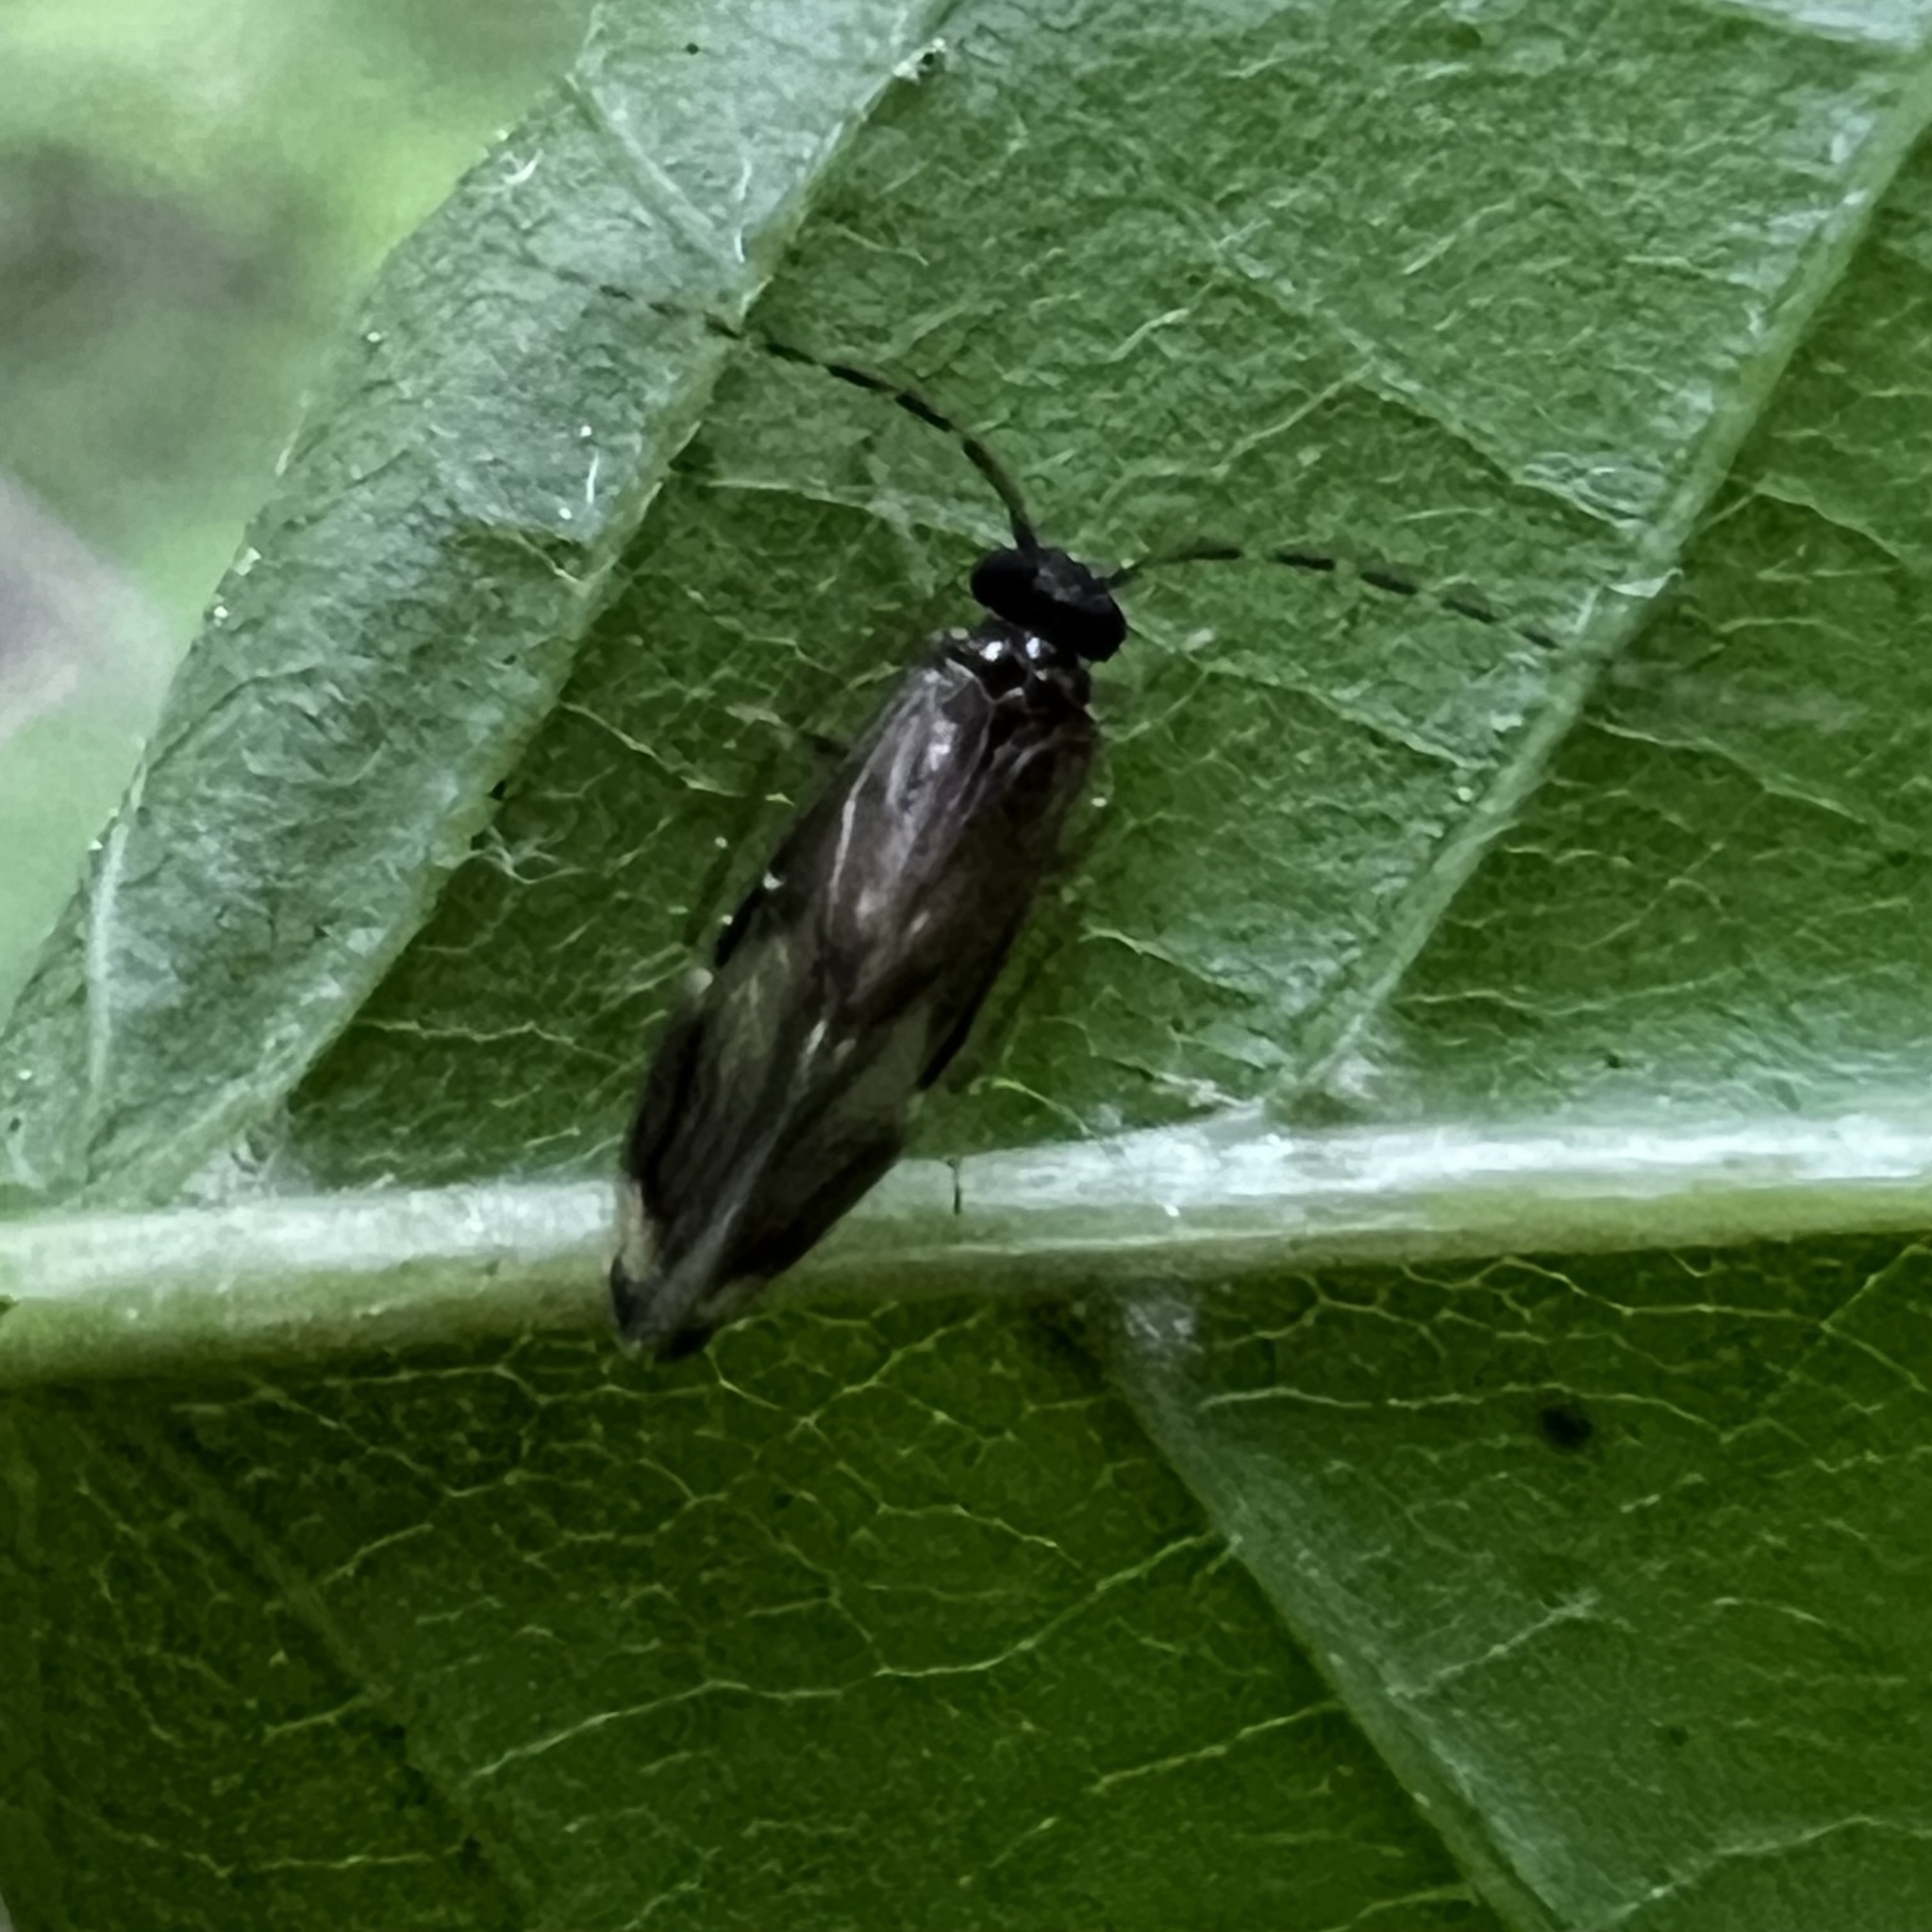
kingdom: Animalia
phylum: Arthropoda
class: Insecta
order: Psocodea
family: Amphipsocidae
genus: Polypsocus
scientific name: Polypsocus corruptus
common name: Corrupt barklouse
